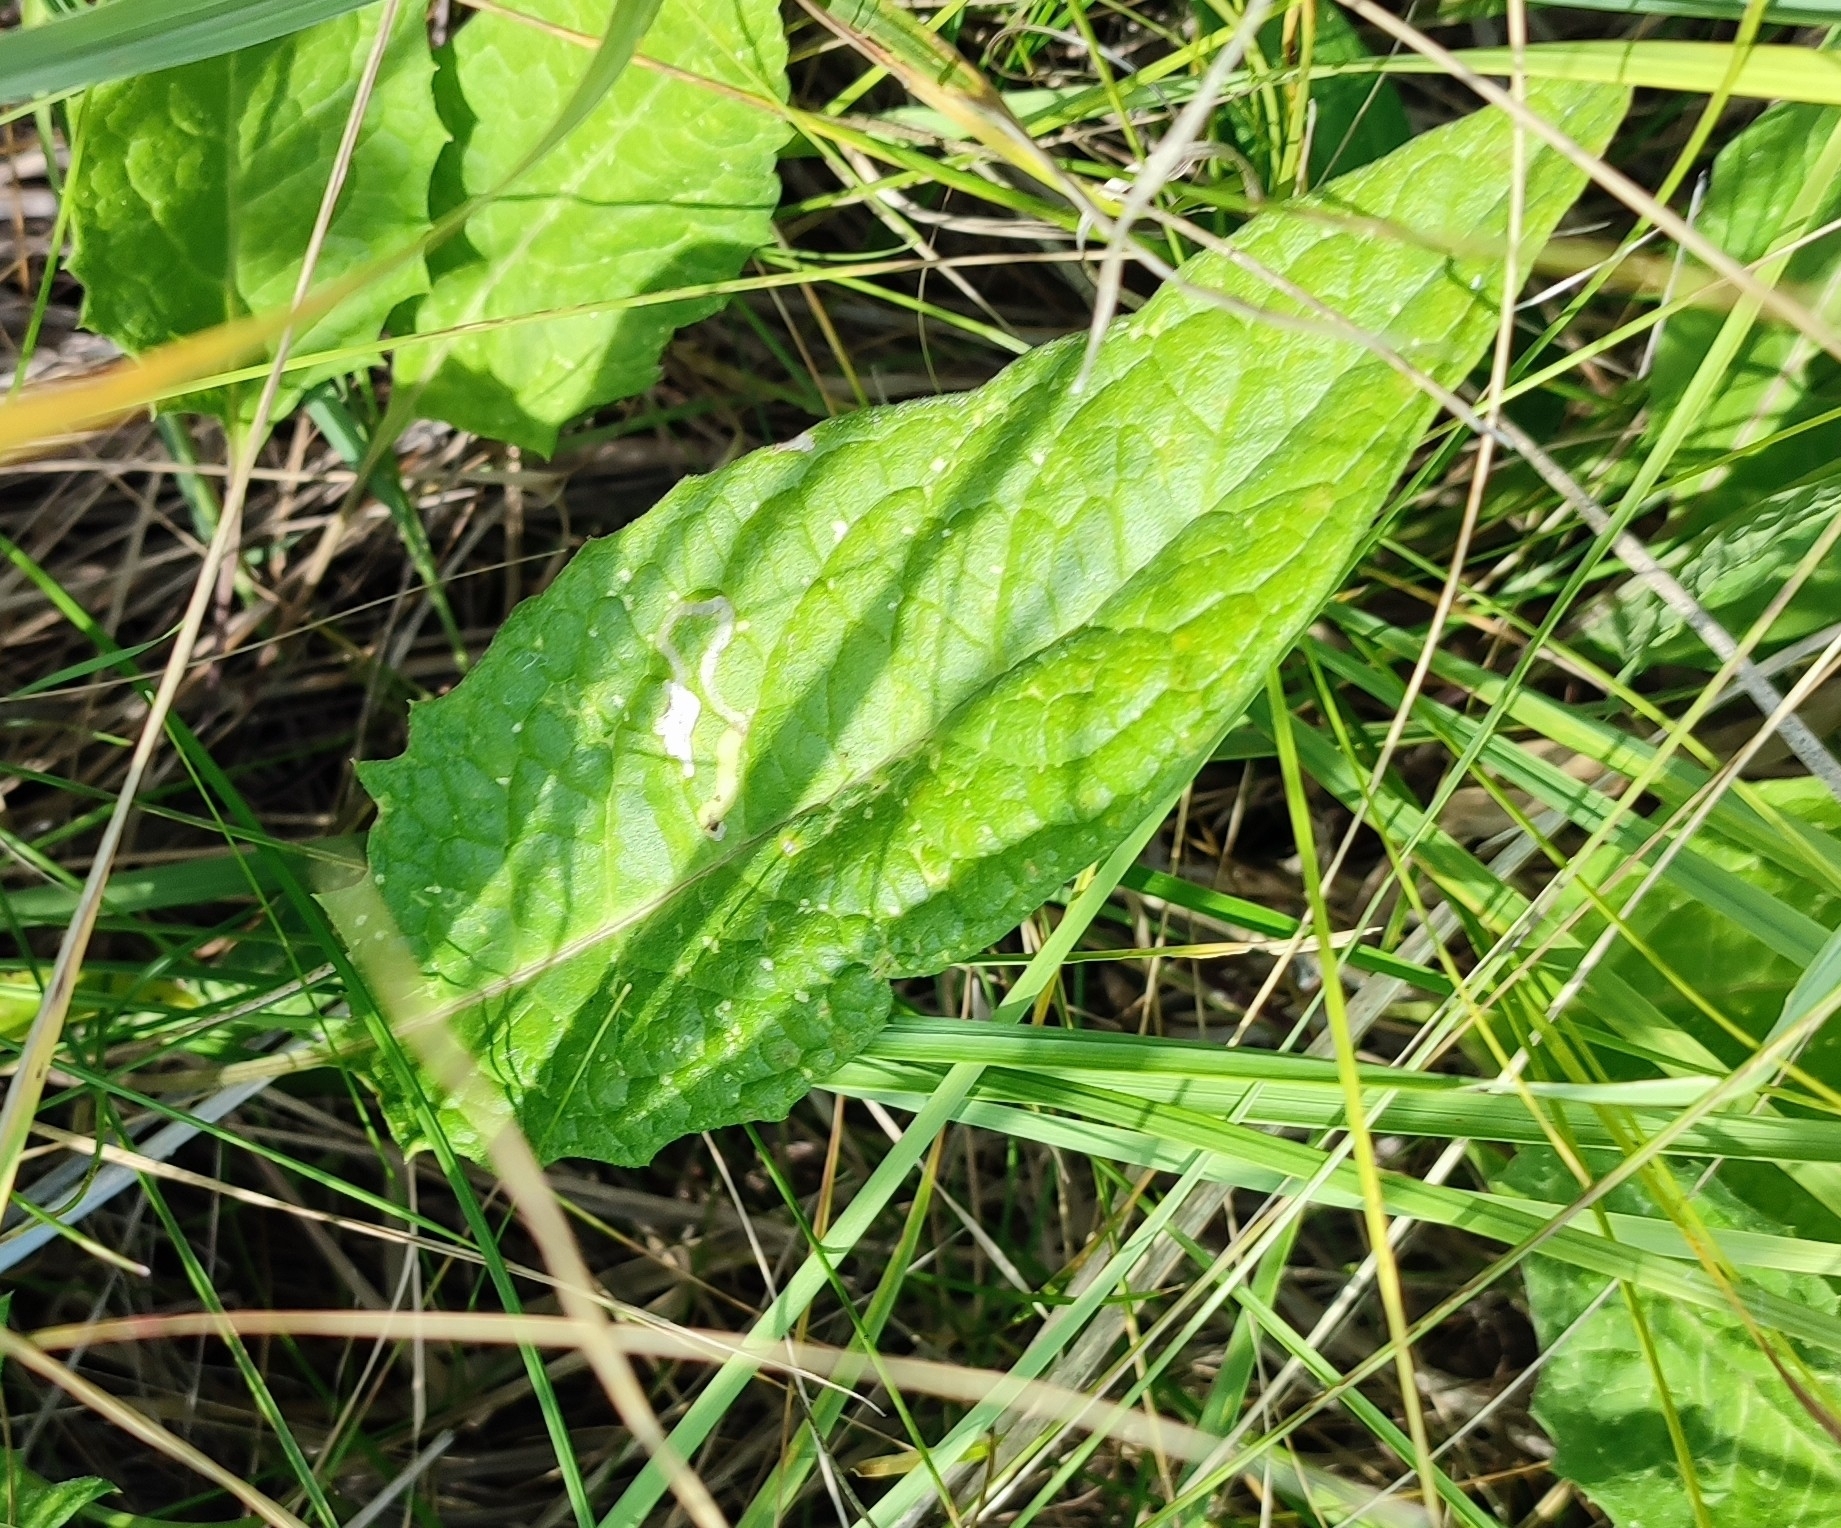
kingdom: Plantae
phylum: Tracheophyta
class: Magnoliopsida
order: Asterales
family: Asteraceae
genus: Saussurea
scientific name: Saussurea amara
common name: Alberta sawwort
